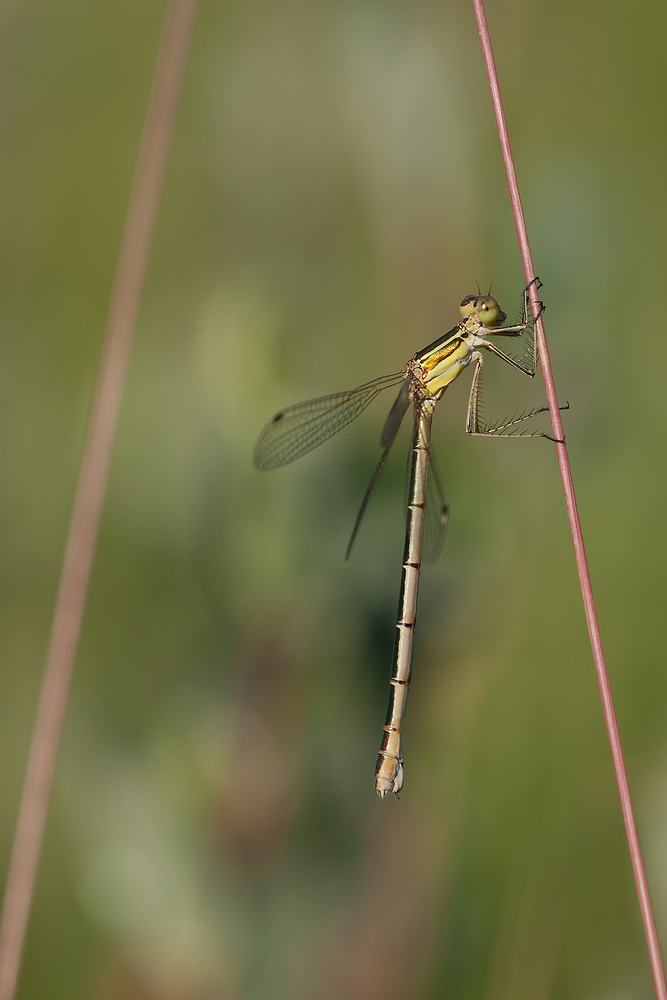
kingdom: Animalia
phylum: Arthropoda
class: Insecta
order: Odonata
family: Lestidae
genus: Lestes
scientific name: Lestes barbarus
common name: Migrant spreadwing
